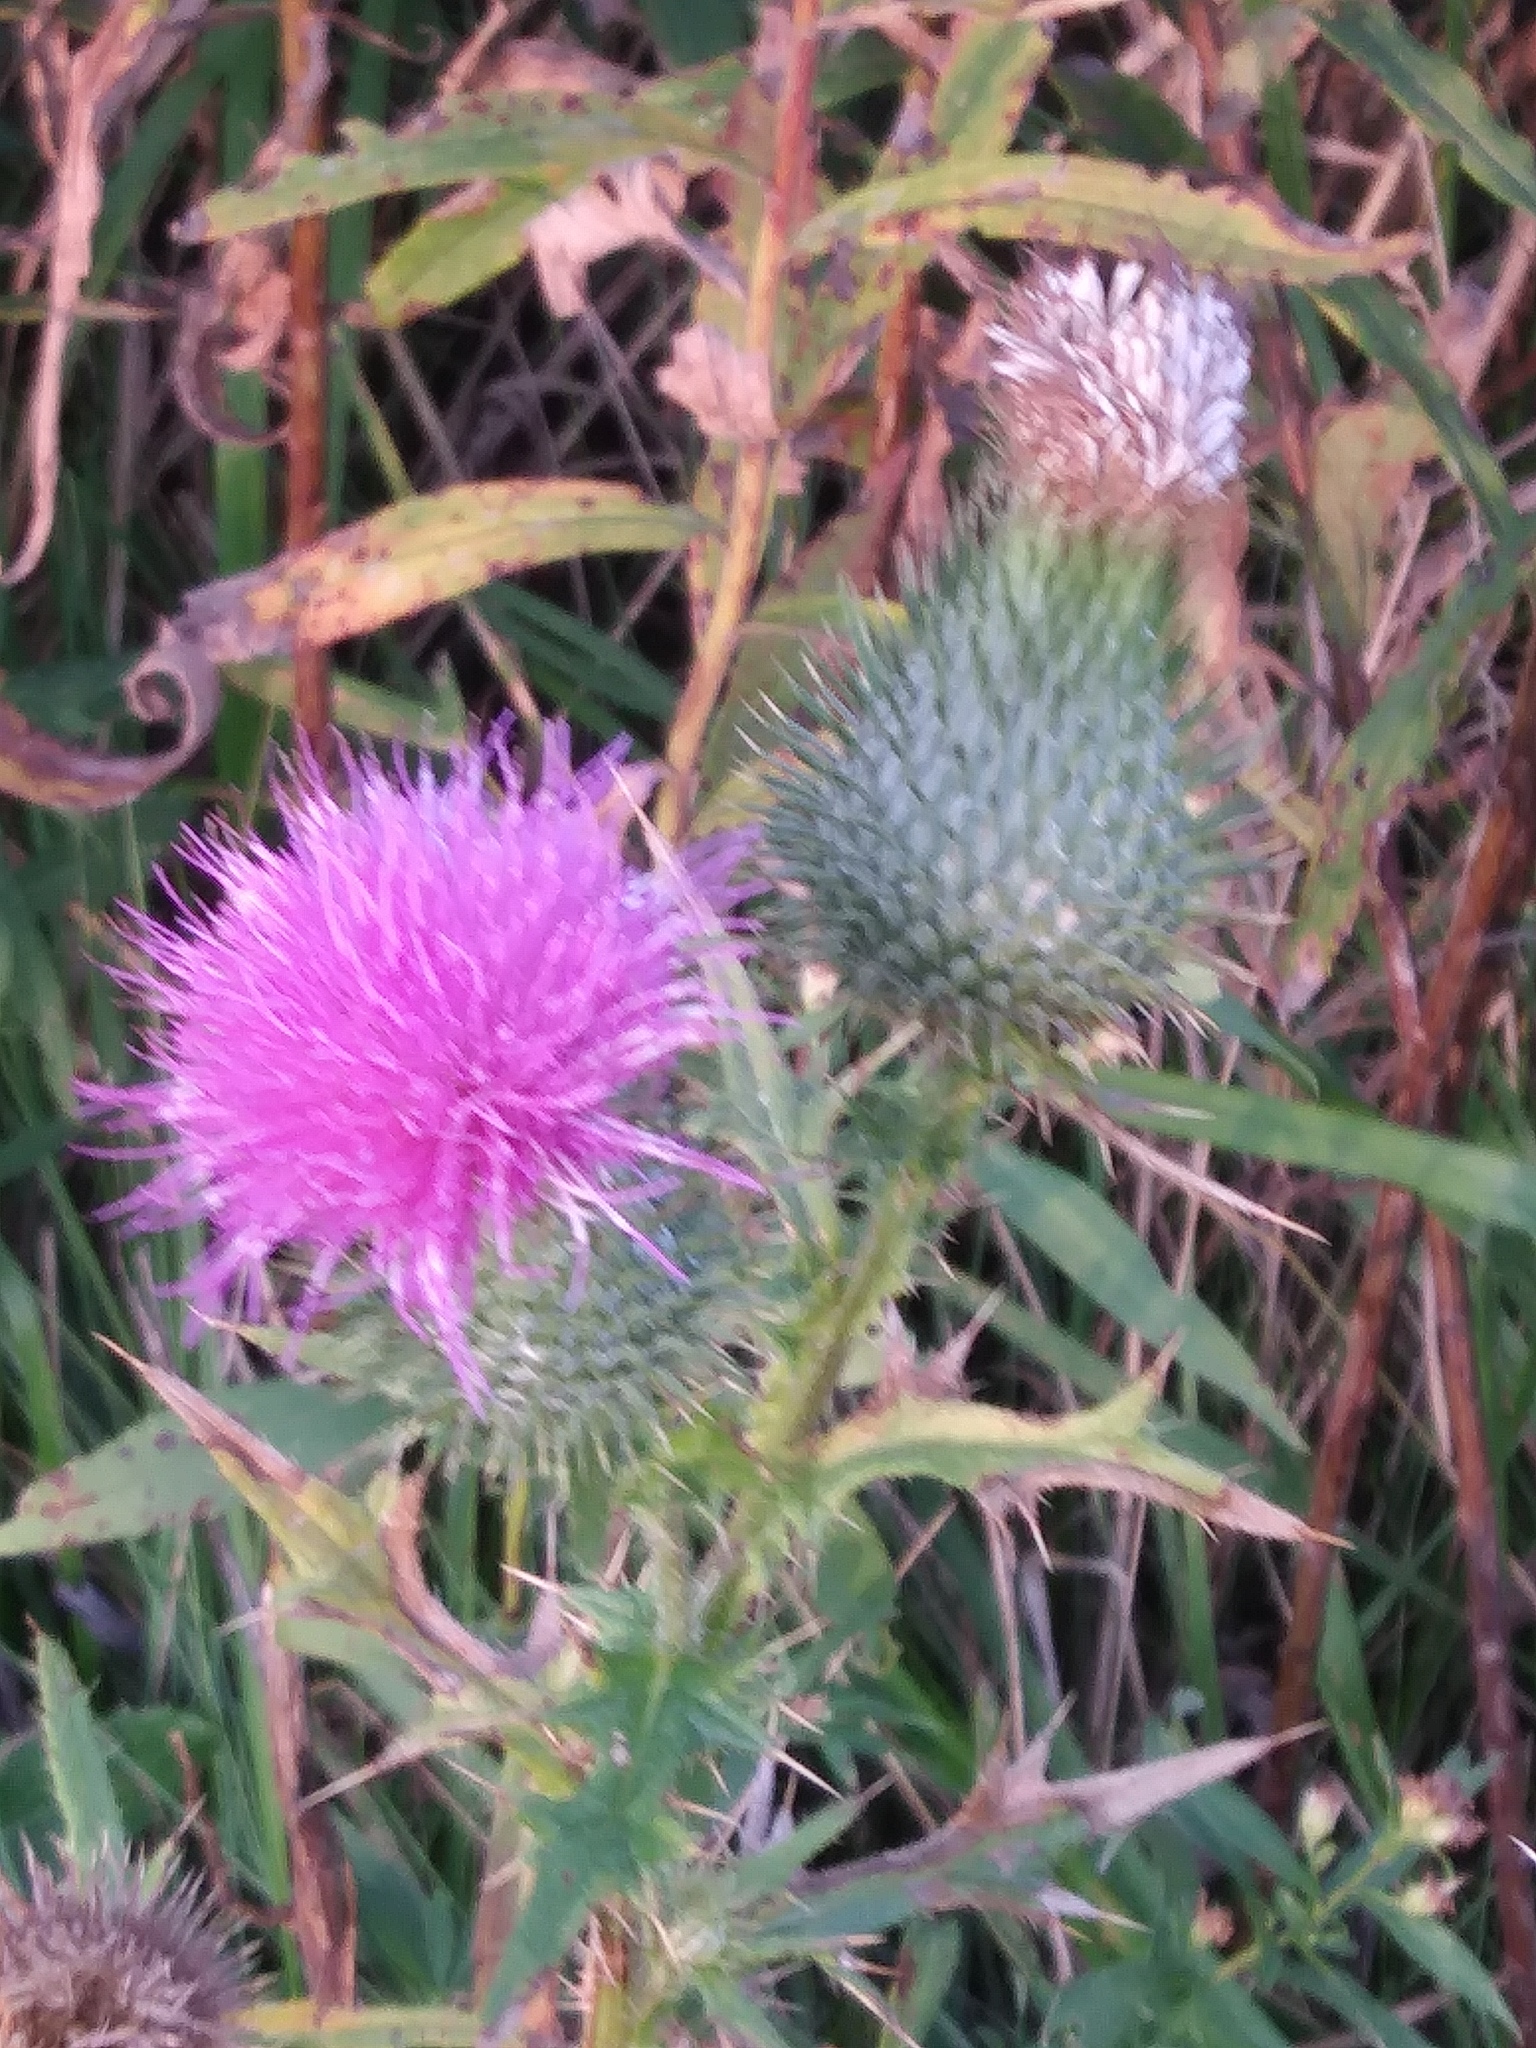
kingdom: Plantae
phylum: Tracheophyta
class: Magnoliopsida
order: Asterales
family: Asteraceae
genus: Cirsium
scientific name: Cirsium vulgare
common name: Bull thistle
